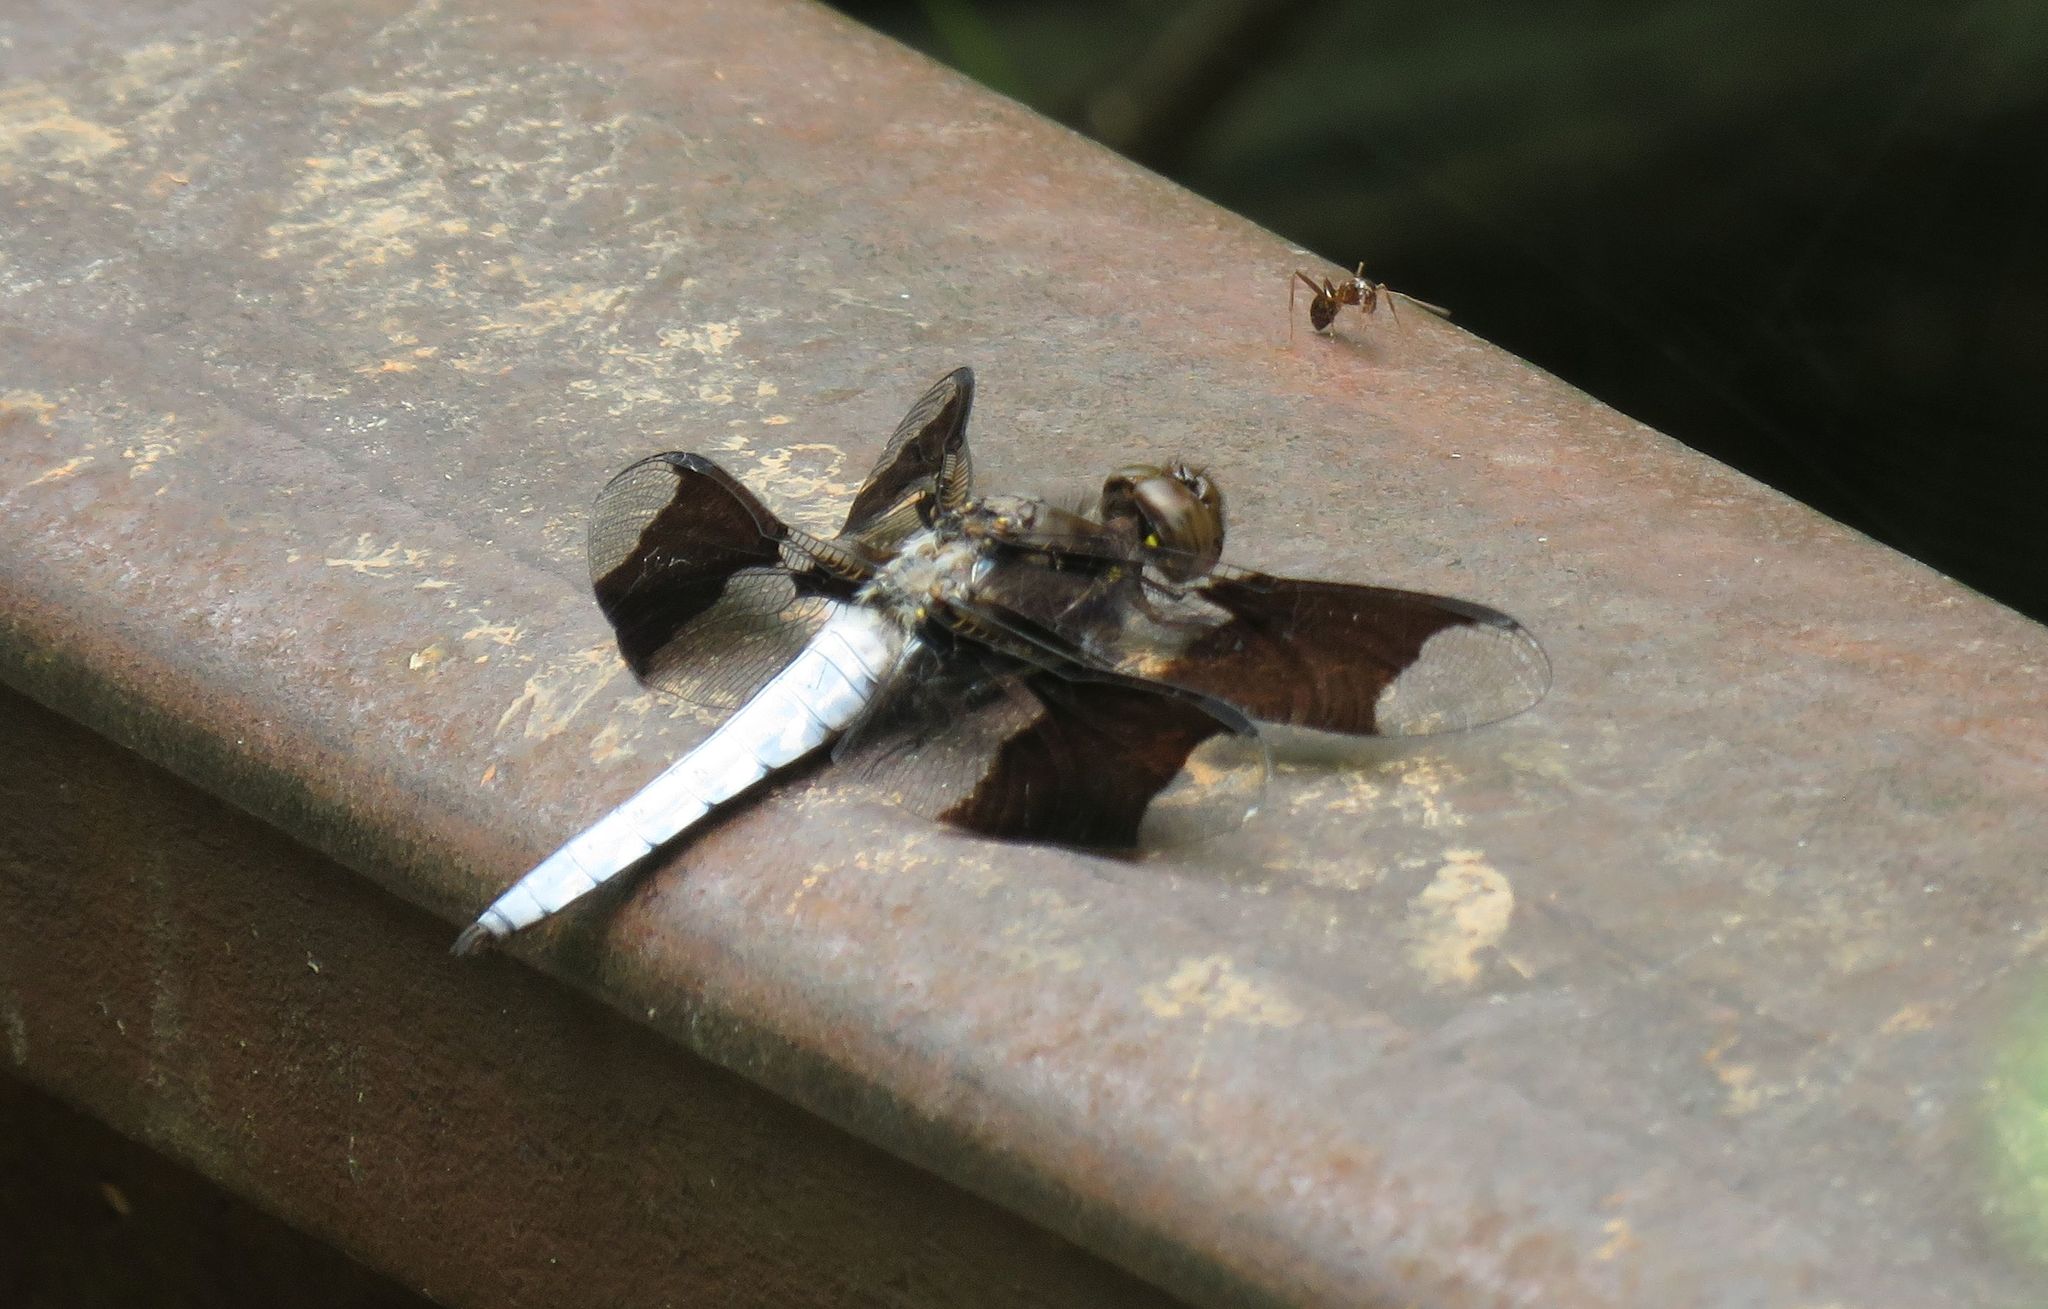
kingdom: Animalia
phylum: Arthropoda
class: Insecta
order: Odonata
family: Libellulidae
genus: Plathemis
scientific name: Plathemis lydia
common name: Common whitetail
